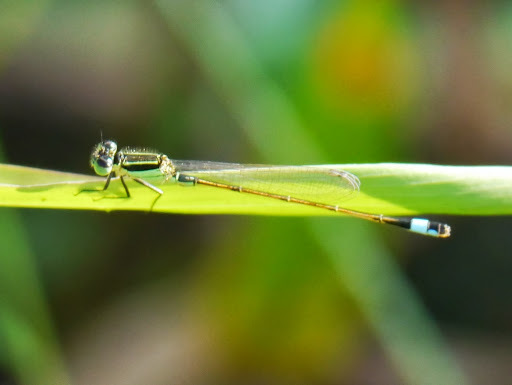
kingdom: Animalia
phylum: Arthropoda
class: Insecta
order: Odonata
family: Coenagrionidae
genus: Ischnura
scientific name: Ischnura ramburii
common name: Rambur's forktail
